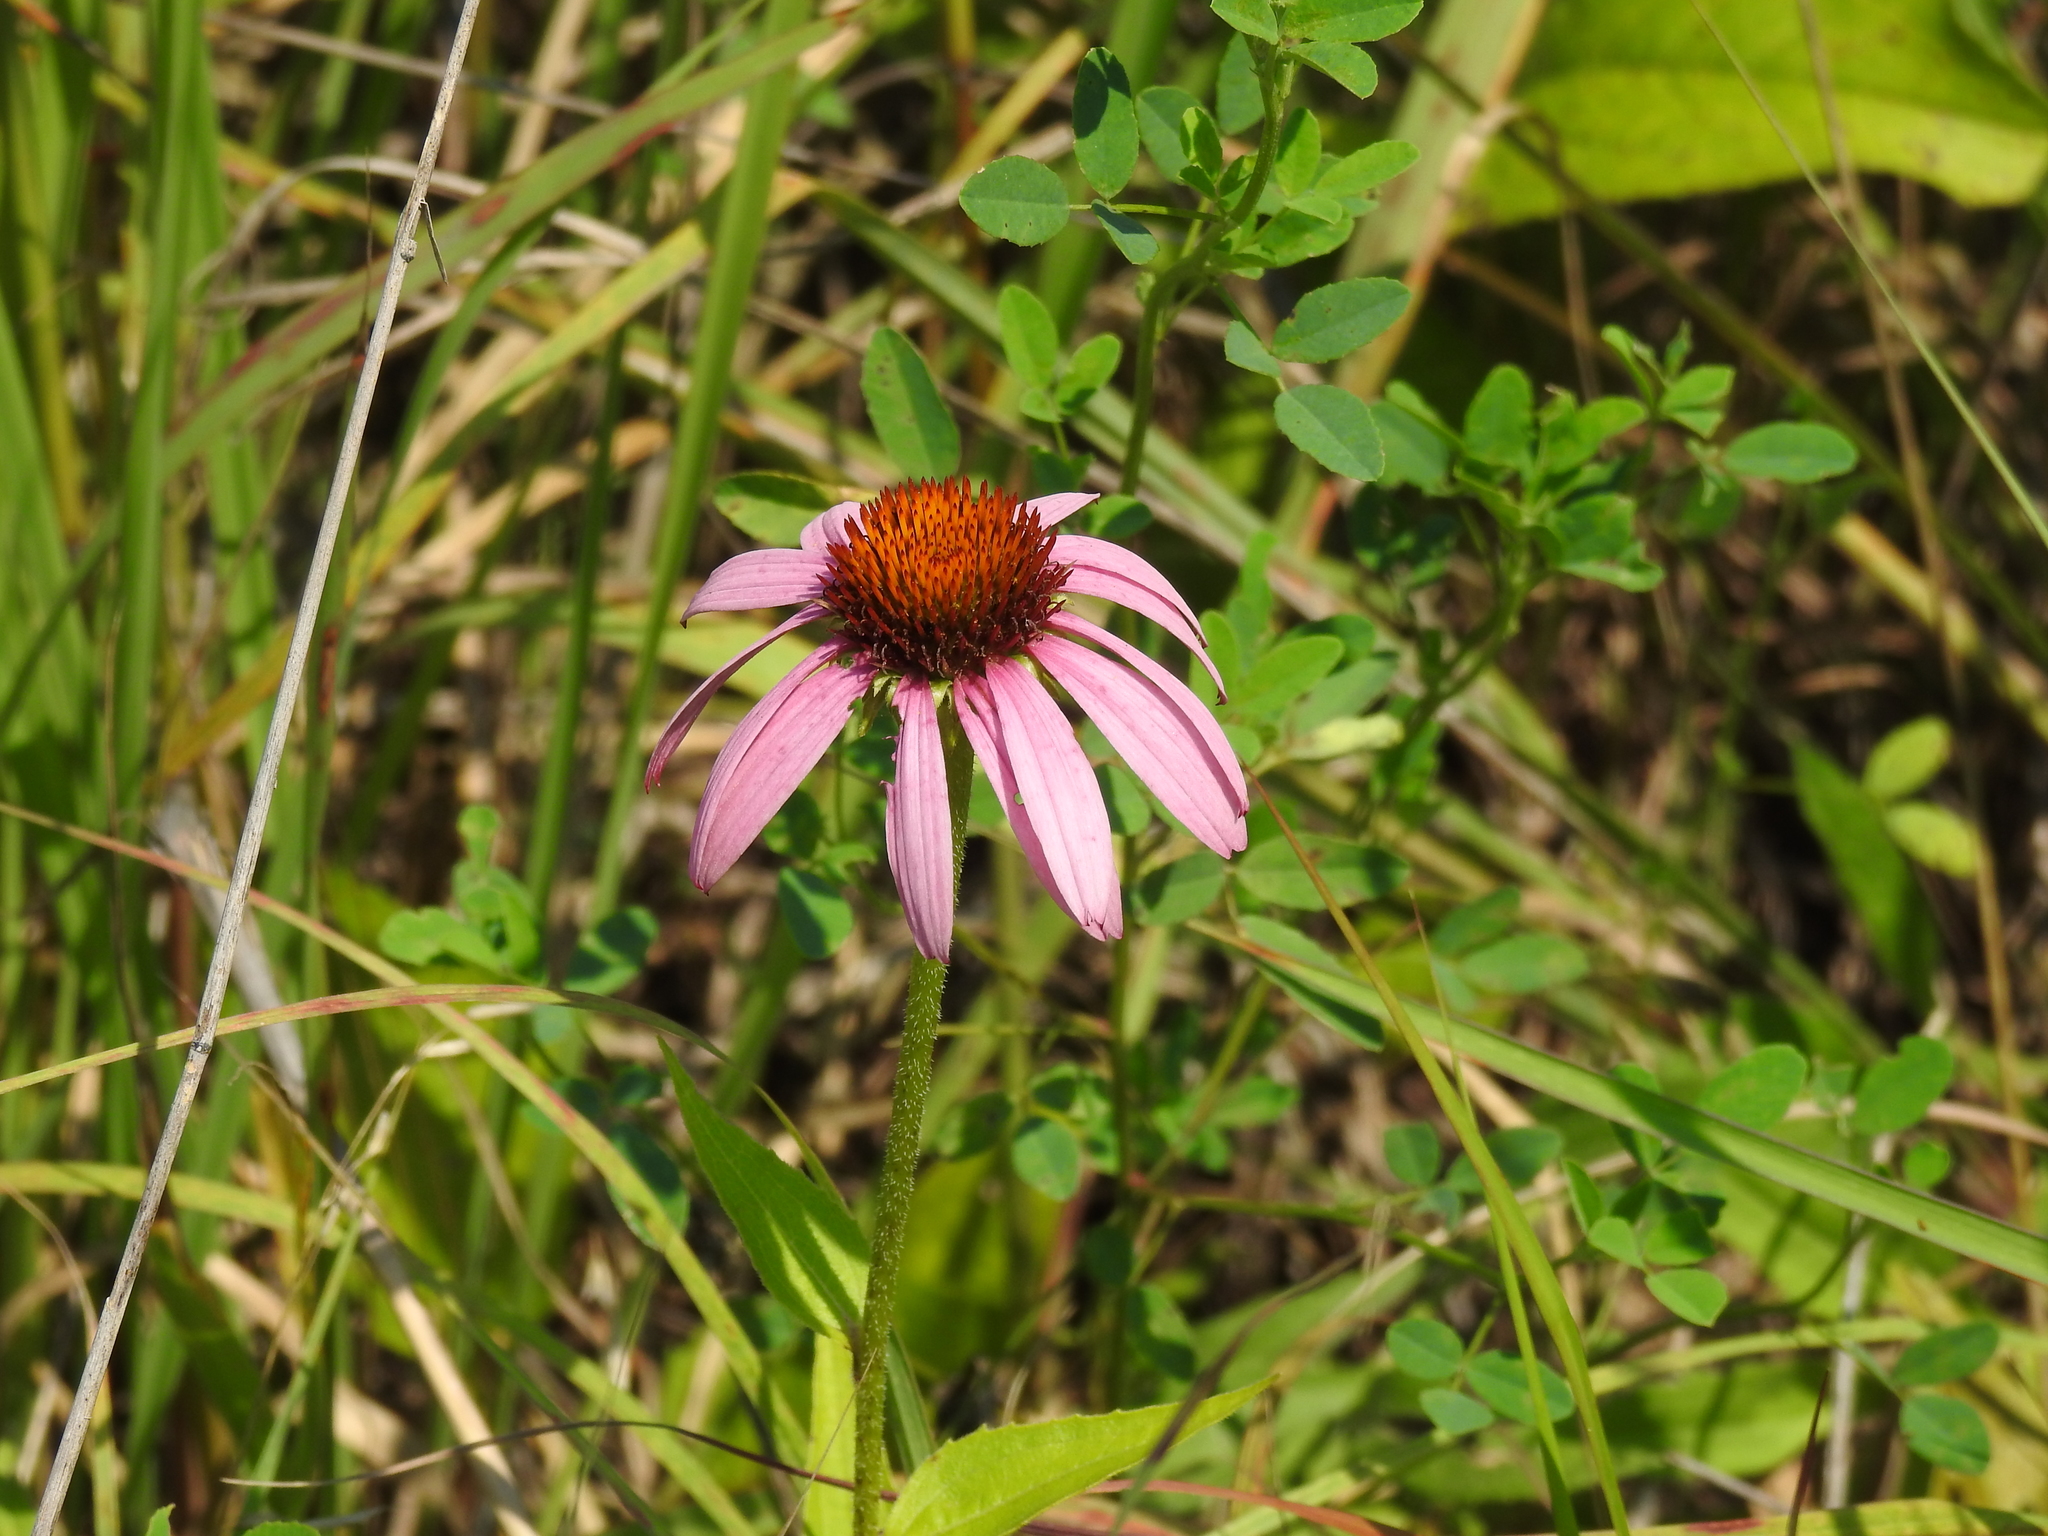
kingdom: Plantae
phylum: Tracheophyta
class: Magnoliopsida
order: Asterales
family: Asteraceae
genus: Echinacea
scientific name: Echinacea purpurea
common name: Broad-leaved purple coneflower
